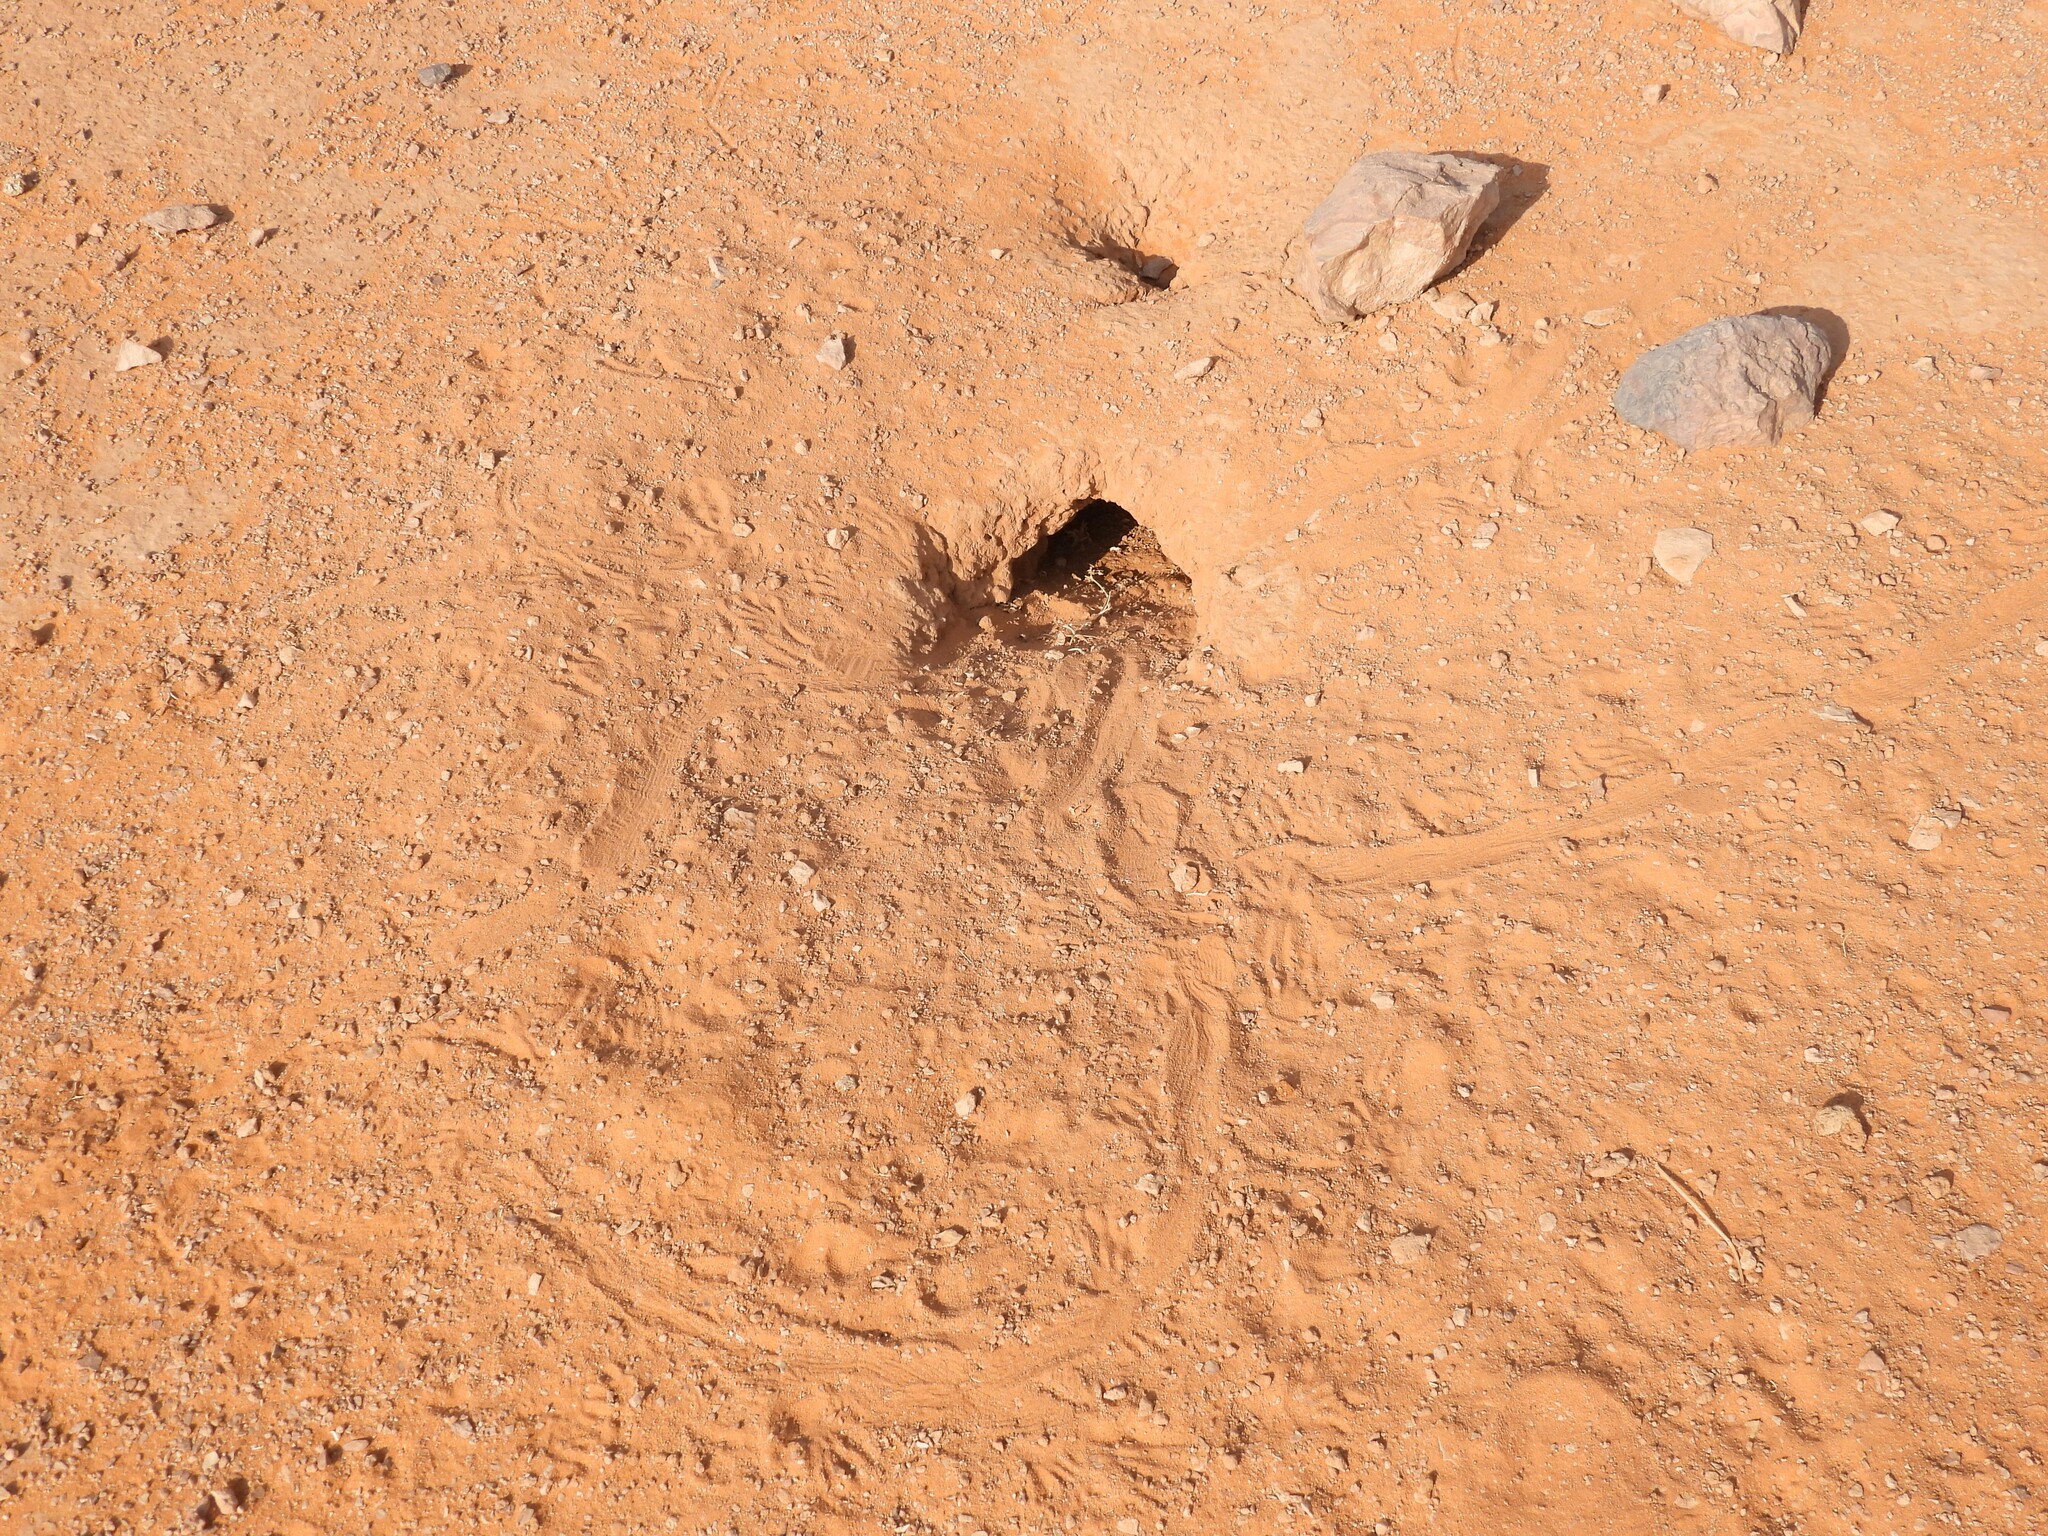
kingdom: Animalia
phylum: Chordata
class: Squamata
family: Agamidae
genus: Uromastyx
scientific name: Uromastyx aegyptia
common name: Egyptian mastigure
